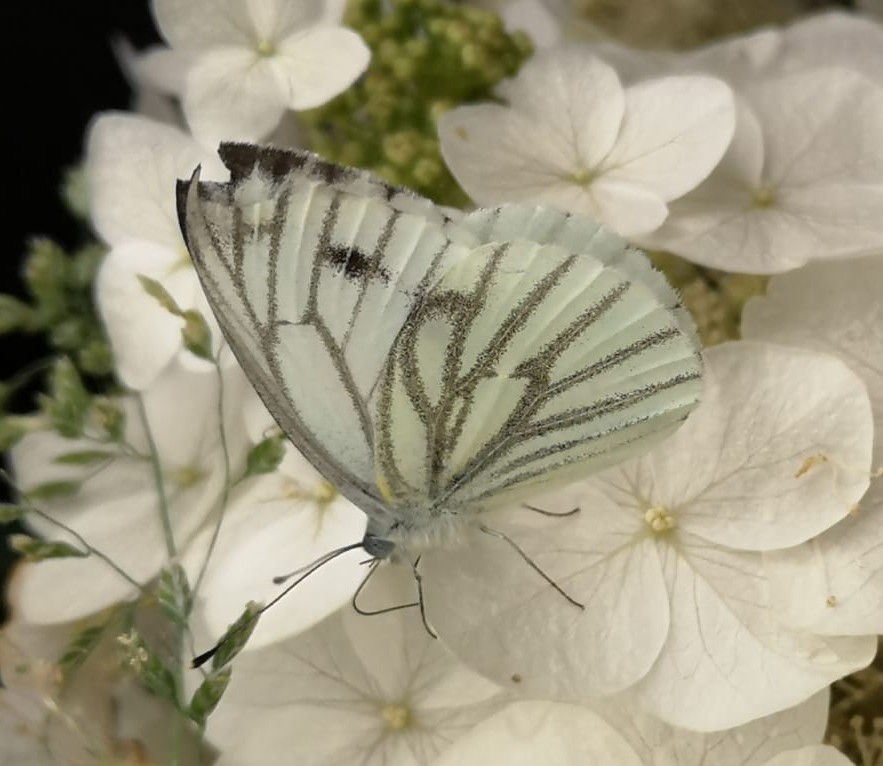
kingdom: Animalia
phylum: Arthropoda
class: Insecta
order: Lepidoptera
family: Pieridae
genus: Pieris
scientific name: Pieris napi
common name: Green-veined white
